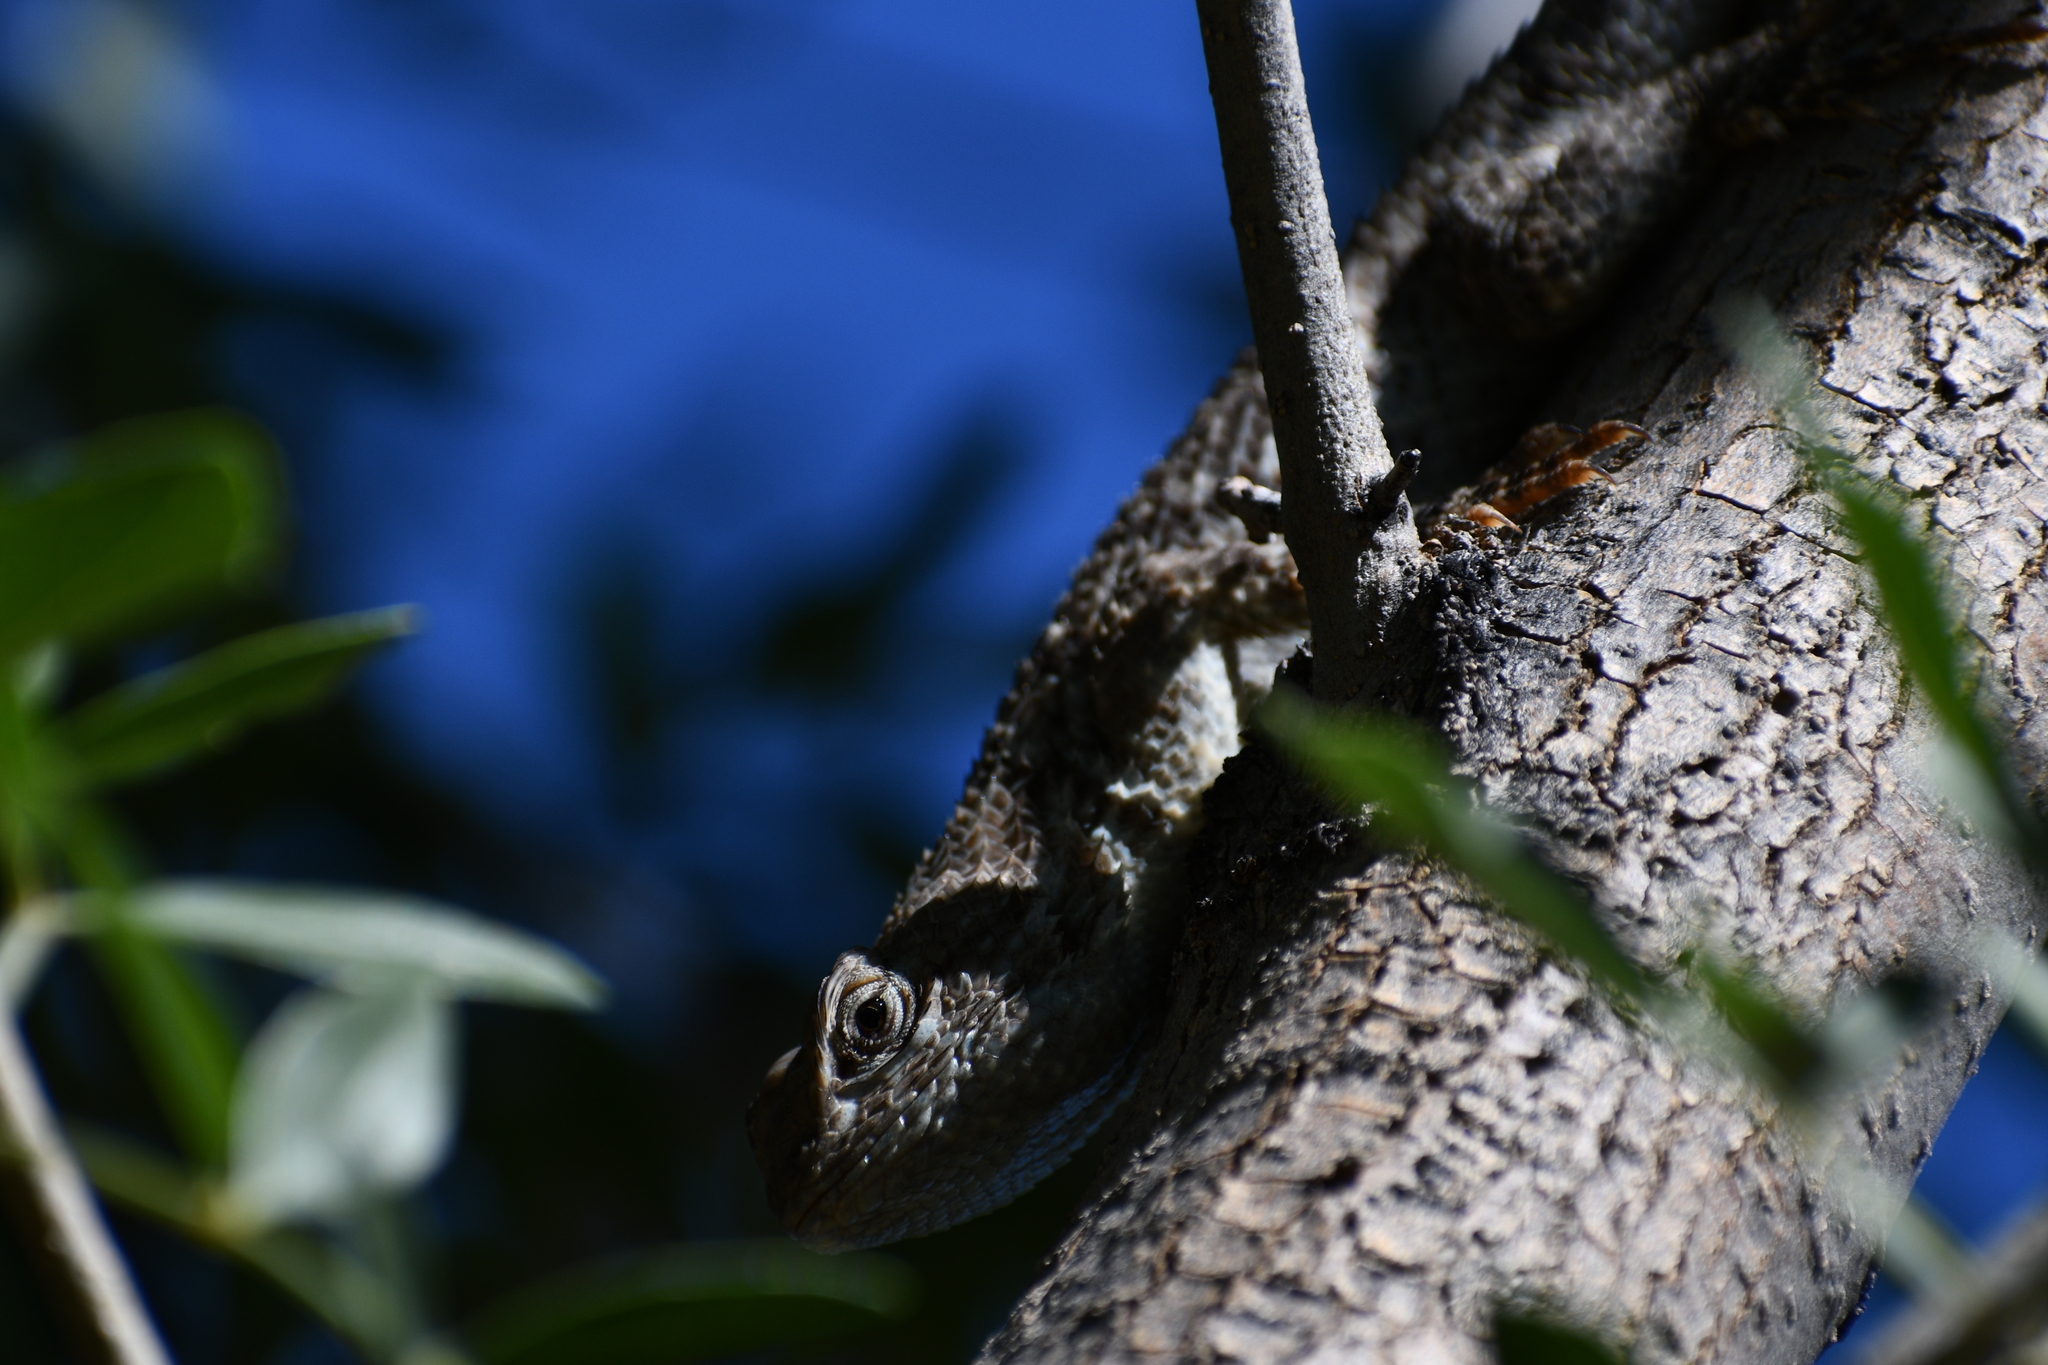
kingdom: Animalia
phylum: Chordata
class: Squamata
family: Phrynosomatidae
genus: Sceloporus
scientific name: Sceloporus clarkii
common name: Clark's spiny lizard
